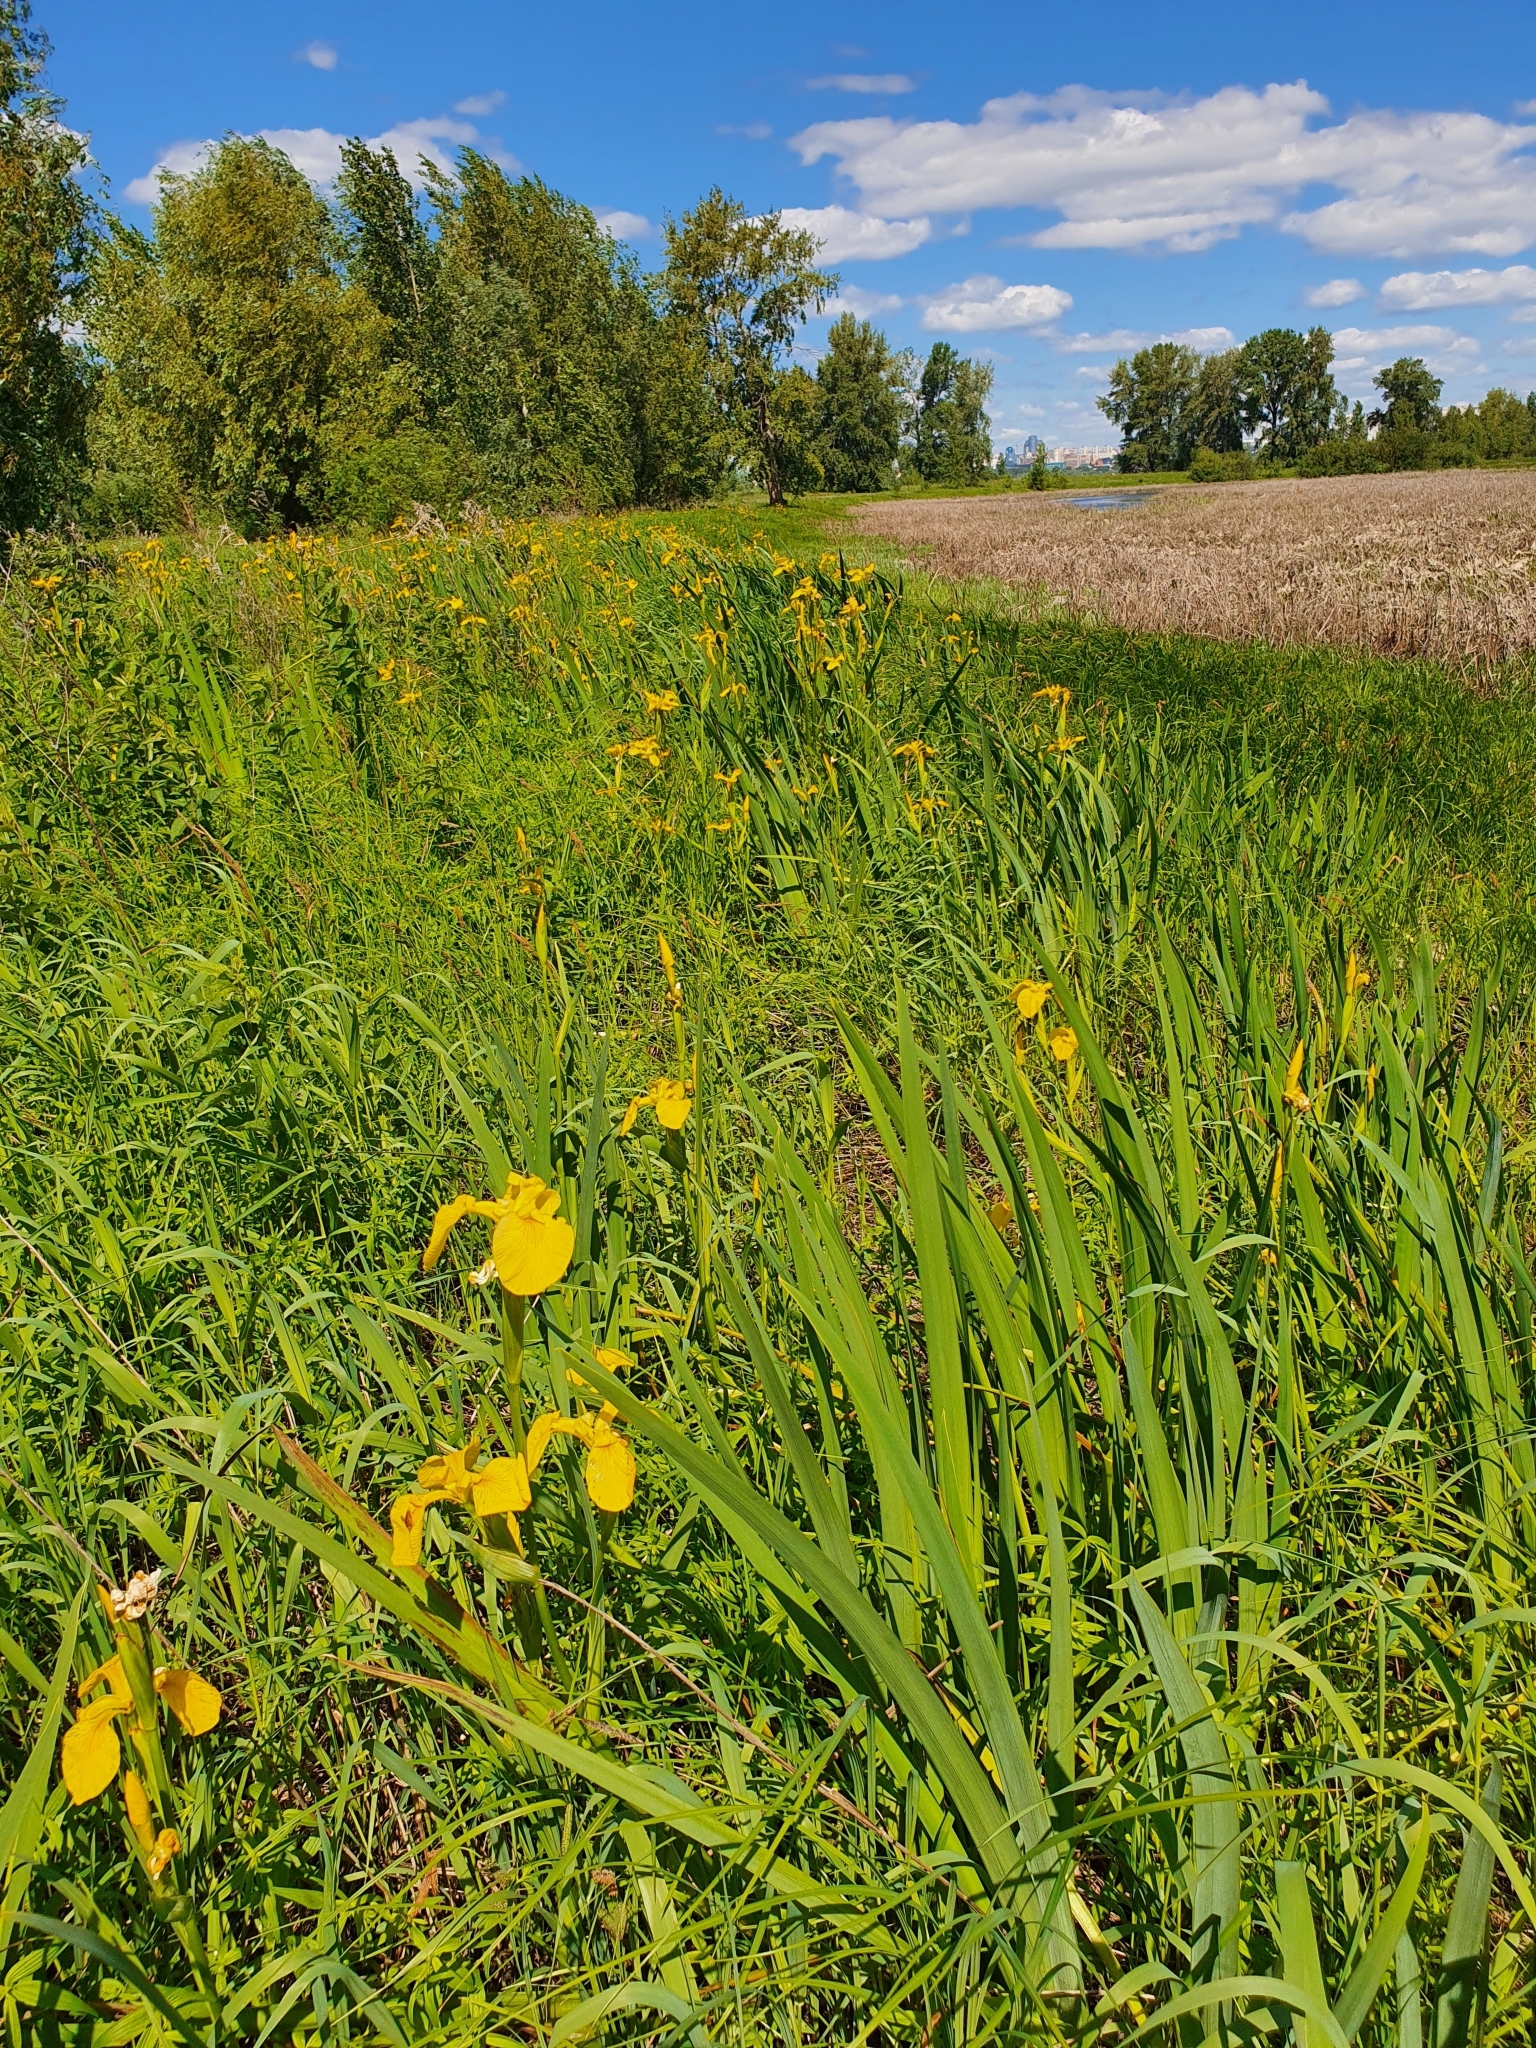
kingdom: Plantae
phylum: Tracheophyta
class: Liliopsida
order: Asparagales
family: Iridaceae
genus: Iris
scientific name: Iris pseudacorus
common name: Yellow flag
